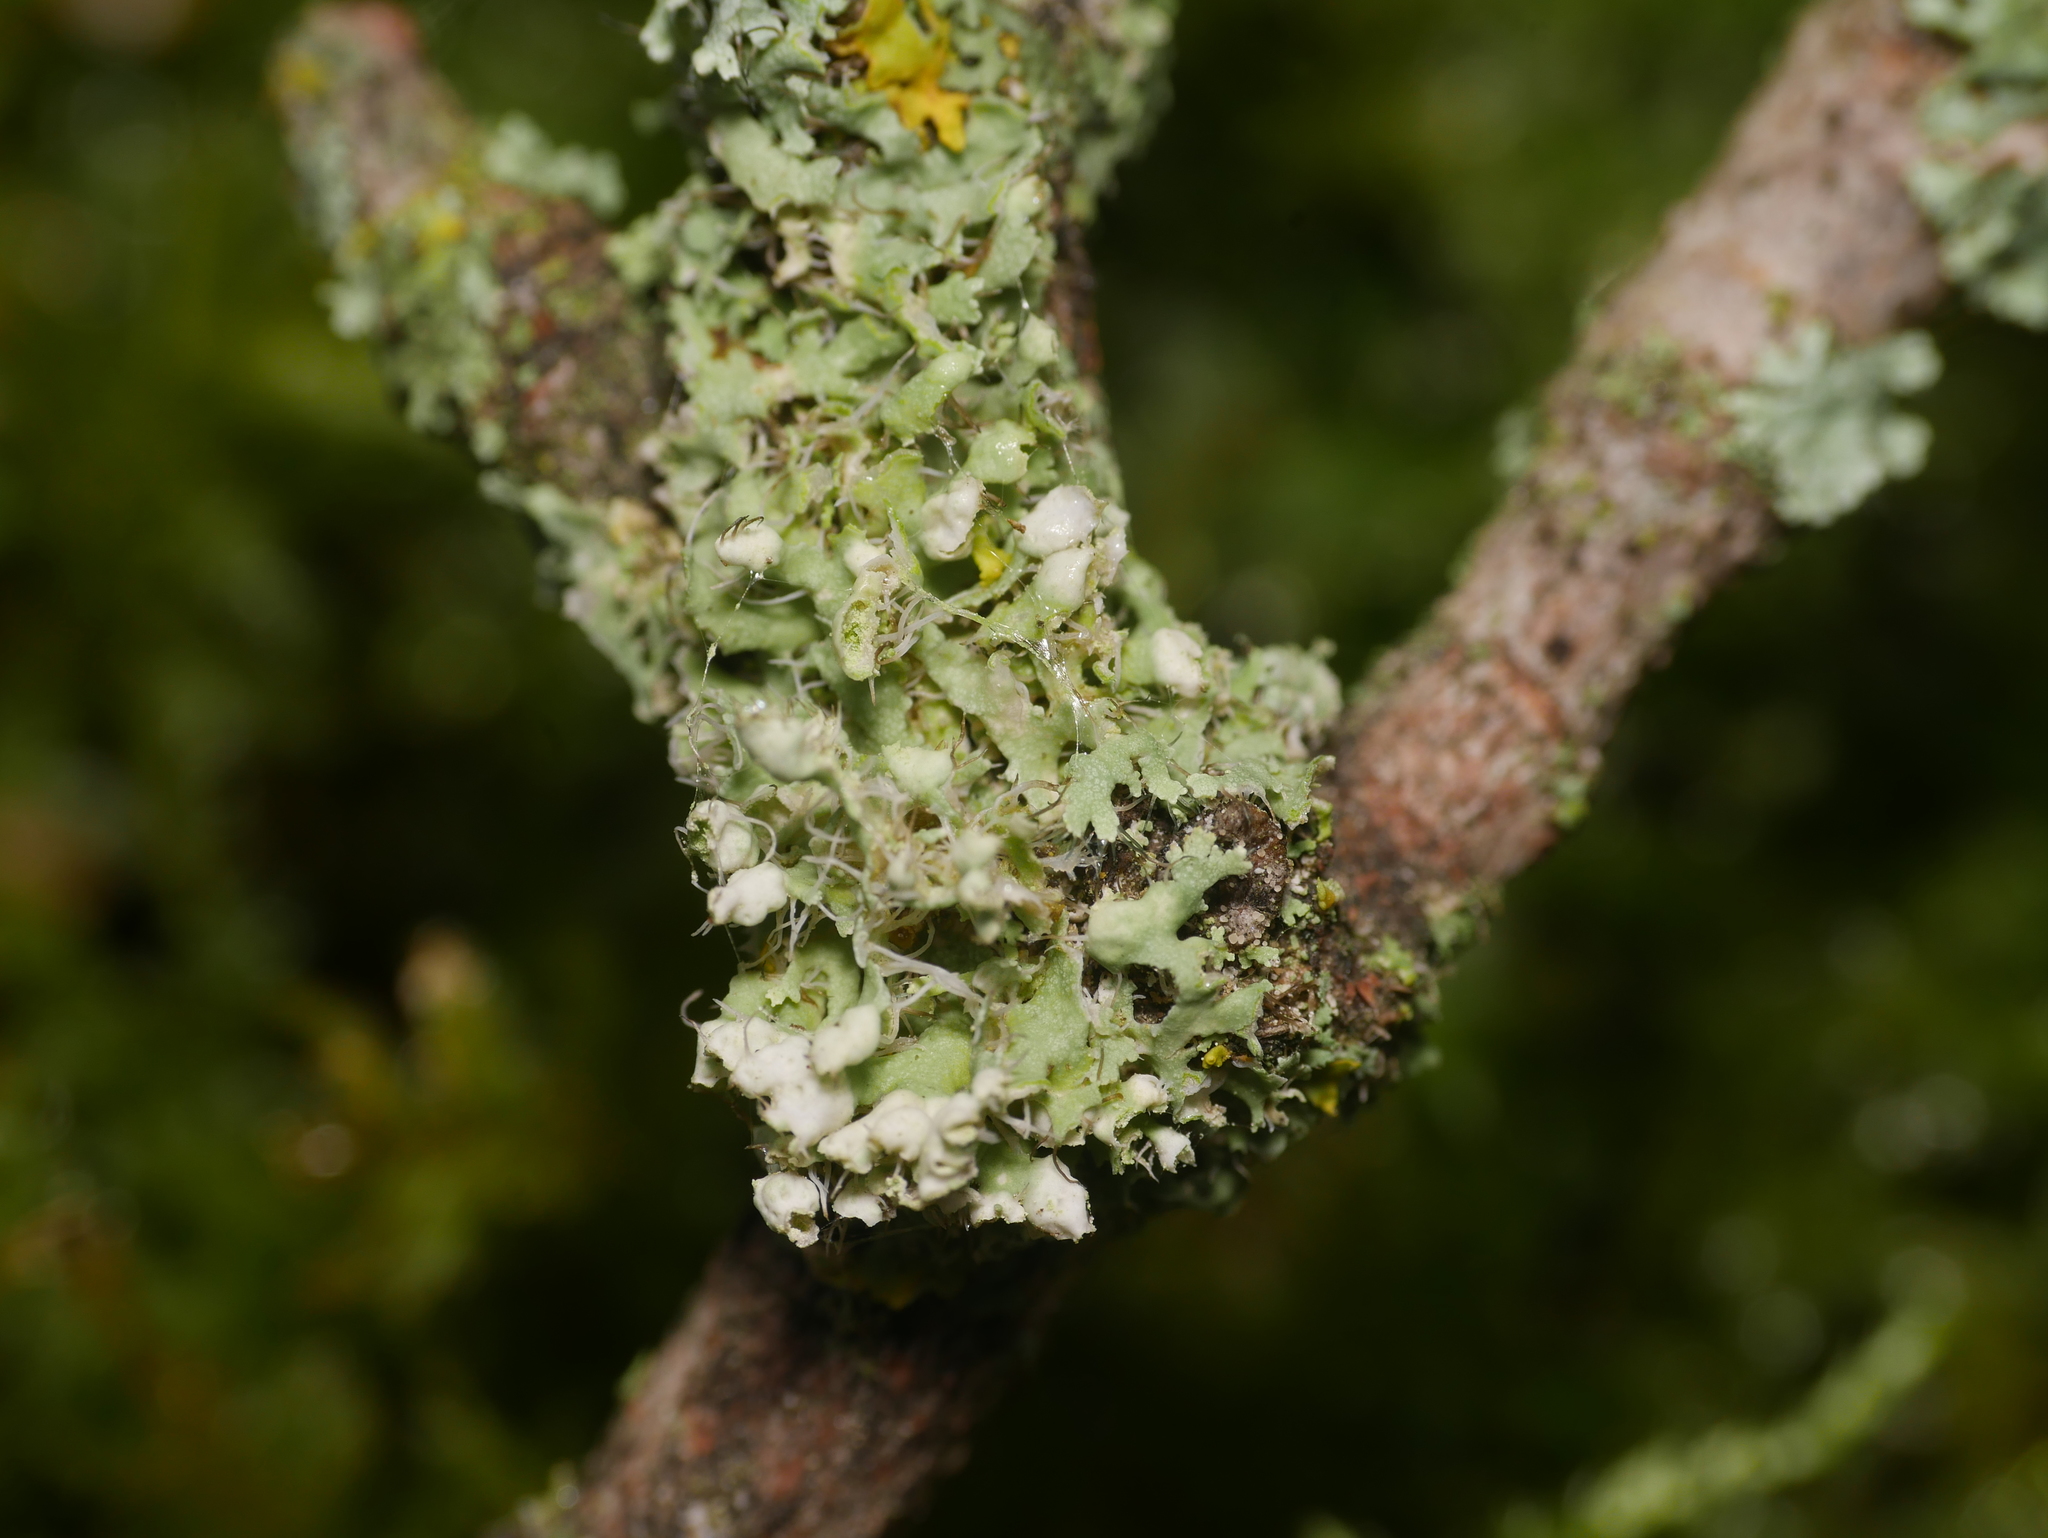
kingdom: Fungi
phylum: Ascomycota
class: Lecanoromycetes
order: Caliciales
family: Physciaceae
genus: Physcia
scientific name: Physcia adscendens
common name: Hooded rosette lichen
